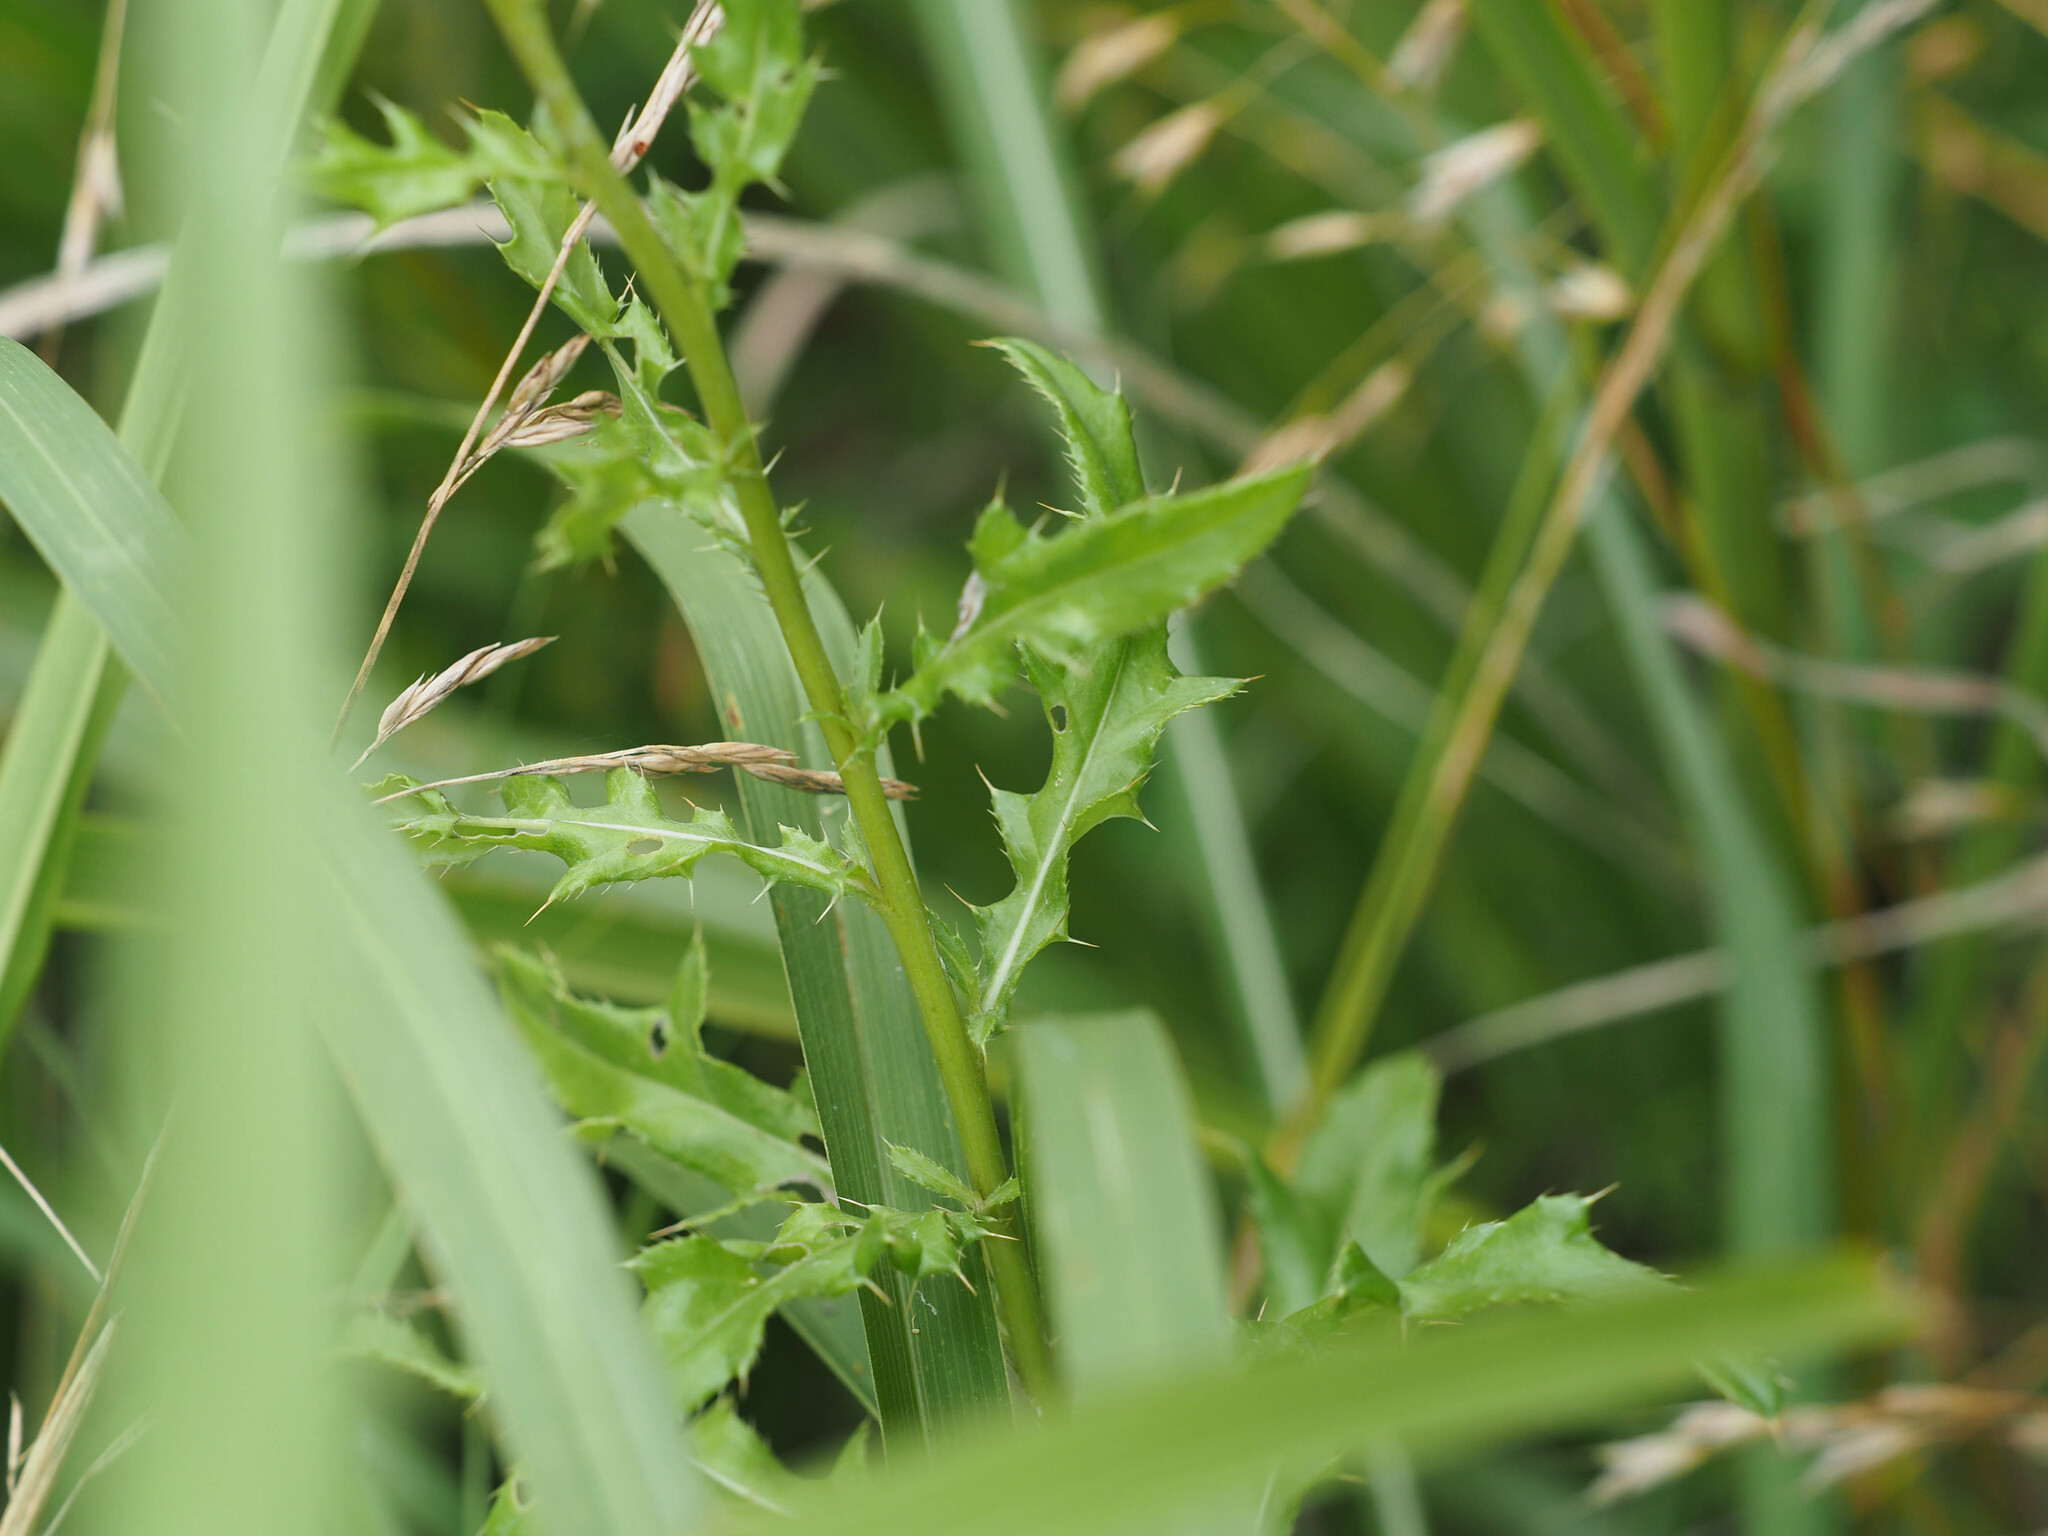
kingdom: Plantae
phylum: Tracheophyta
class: Magnoliopsida
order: Asterales
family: Asteraceae
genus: Cirsium
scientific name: Cirsium arvense
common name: Creeping thistle
